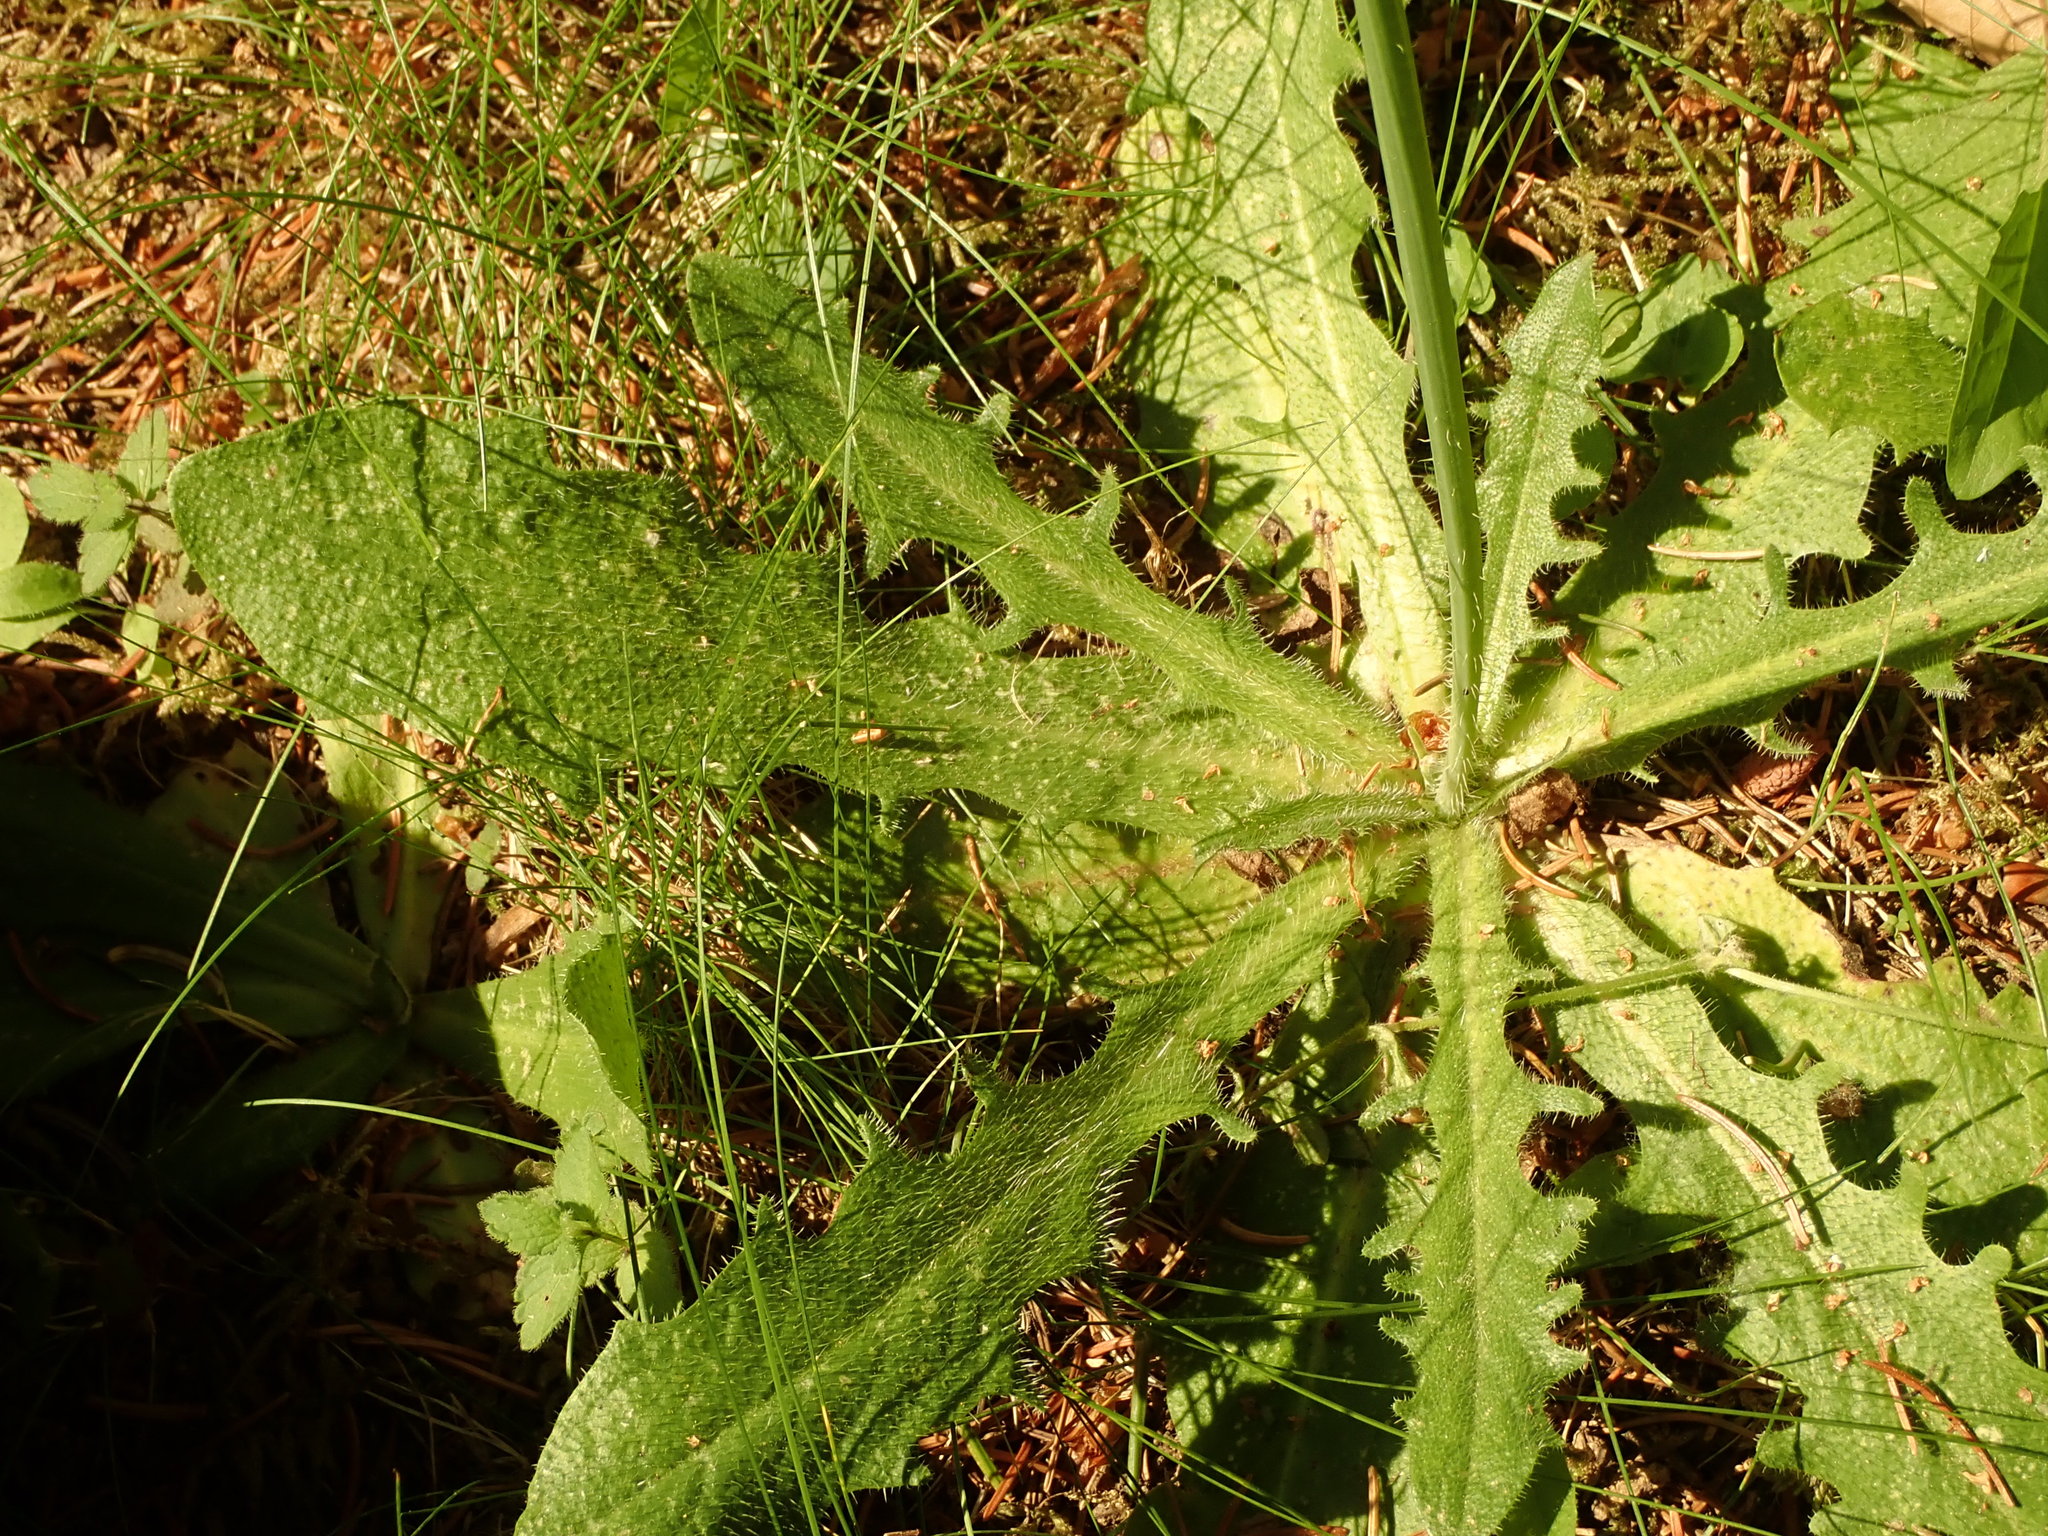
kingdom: Plantae
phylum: Tracheophyta
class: Magnoliopsida
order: Asterales
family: Asteraceae
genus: Hypochaeris
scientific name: Hypochaeris radicata
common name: Flatweed
